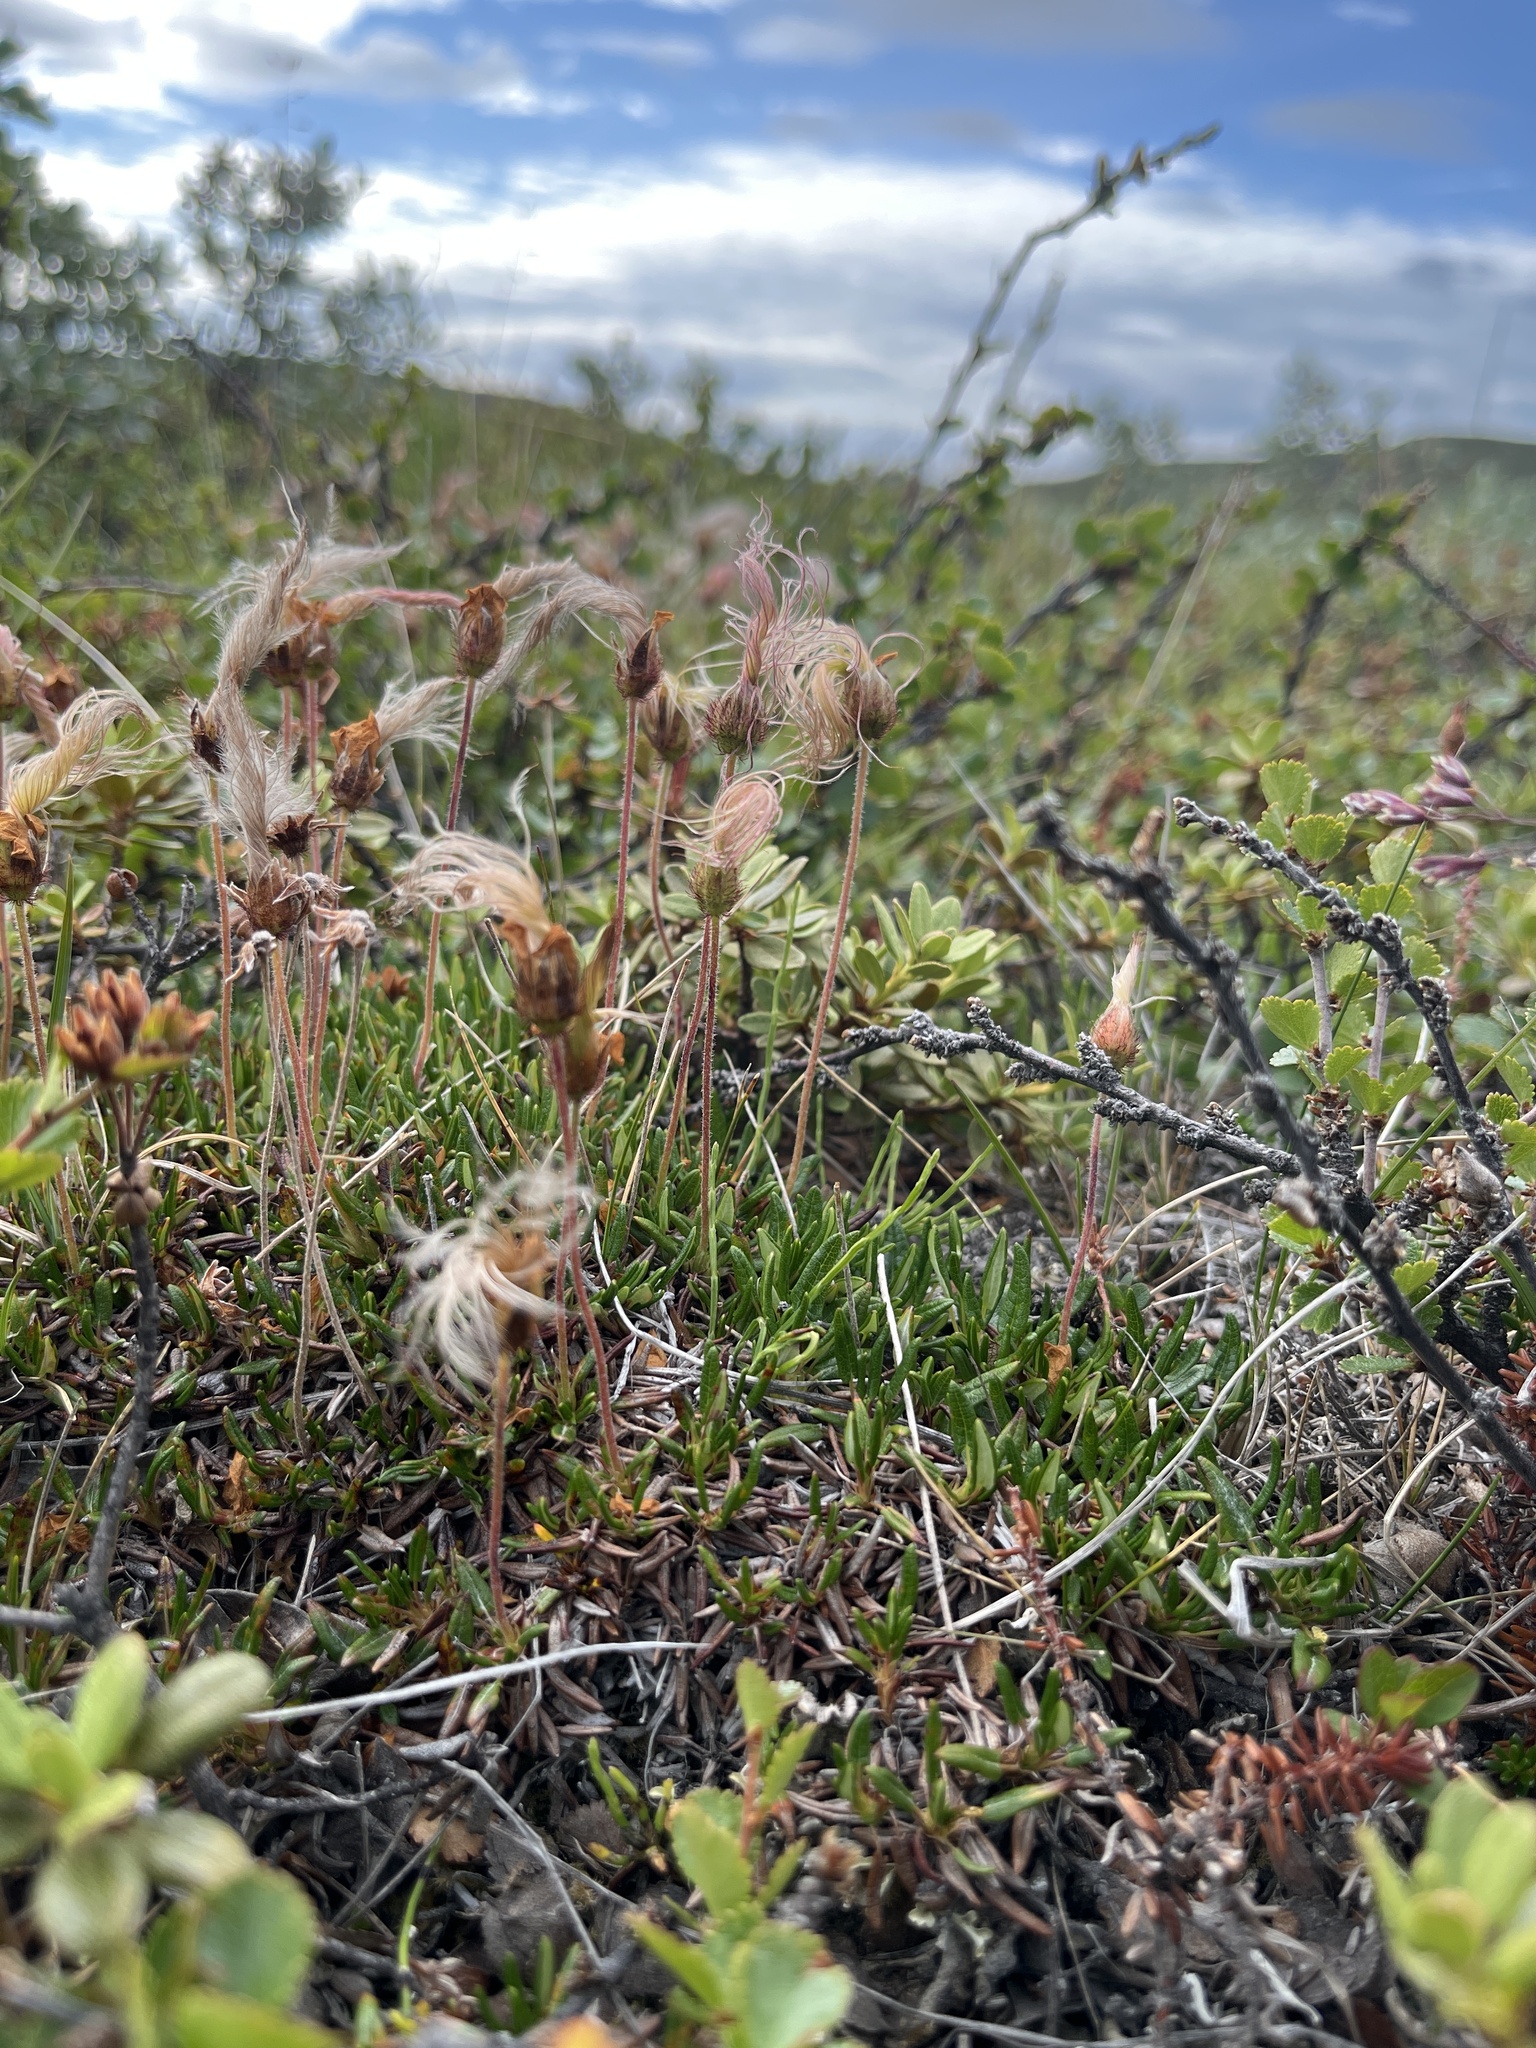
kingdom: Plantae
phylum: Tracheophyta
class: Magnoliopsida
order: Rosales
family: Rosaceae
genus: Dryas
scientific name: Dryas integrifolia
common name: Entire-leaved mountain avens
